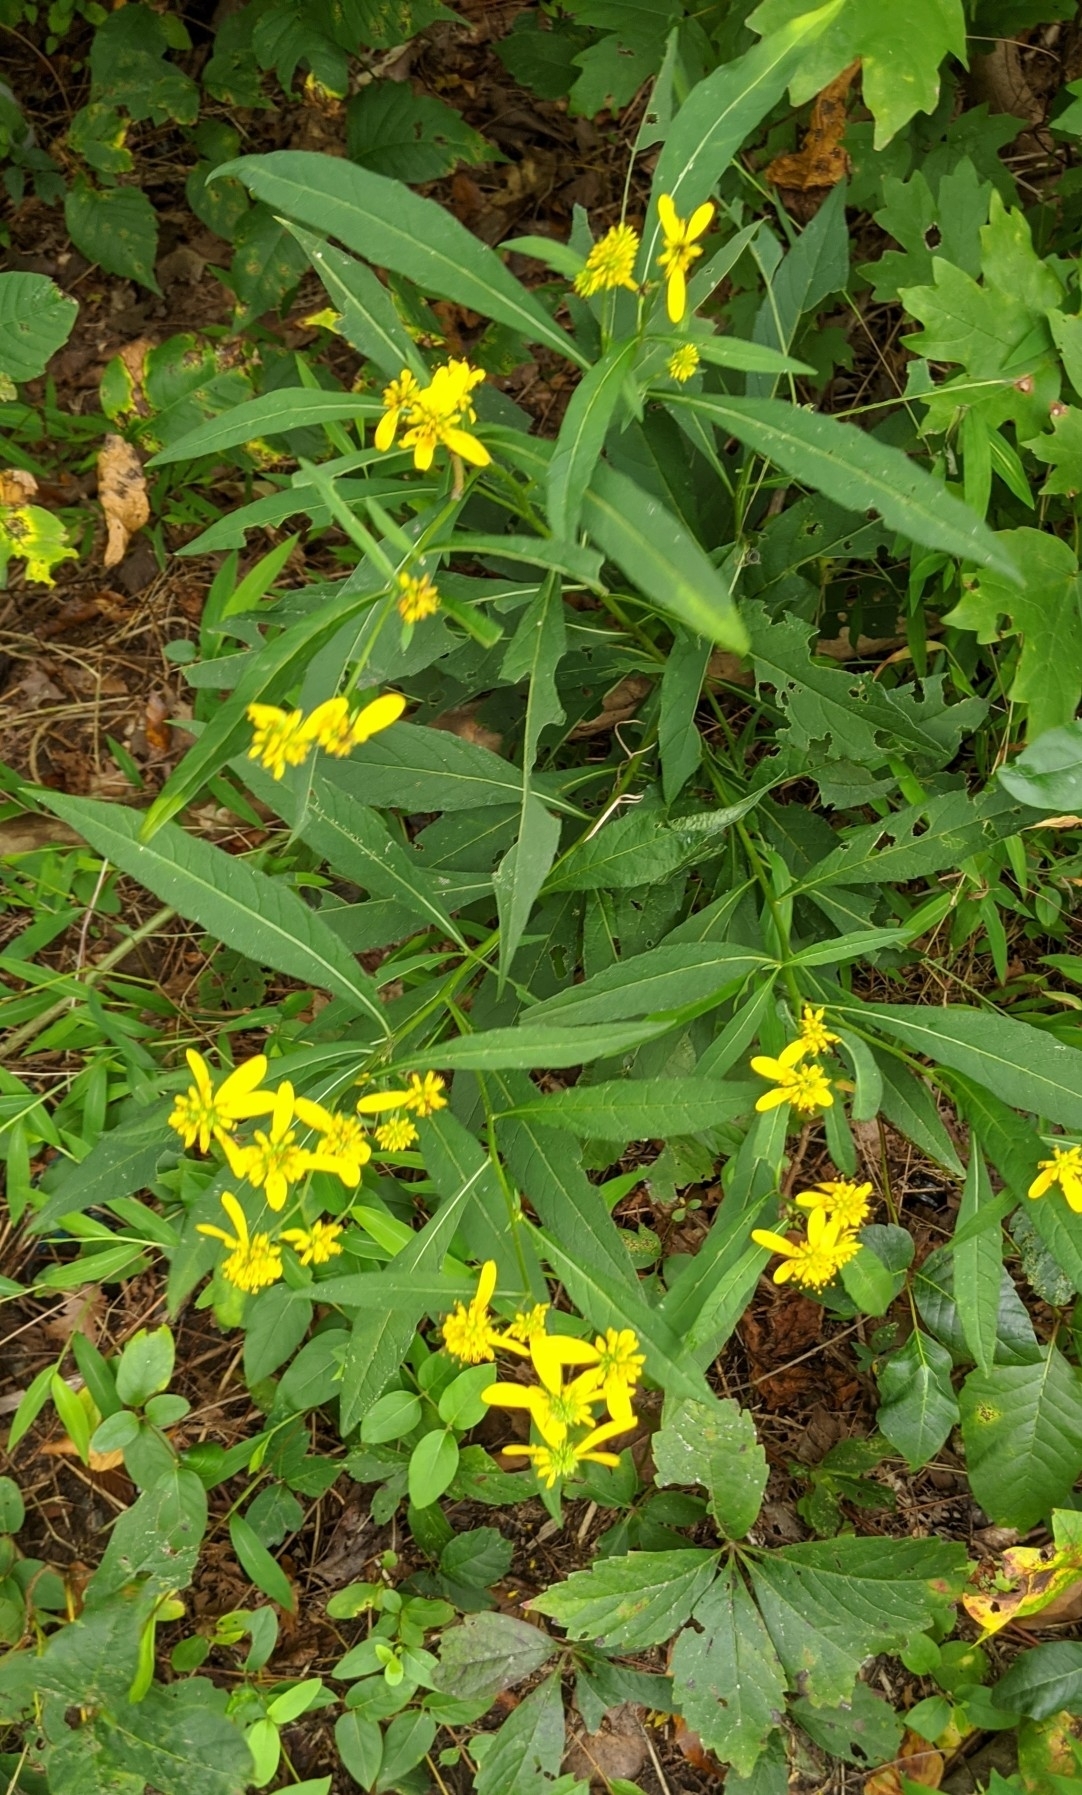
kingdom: Plantae
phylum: Tracheophyta
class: Magnoliopsida
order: Asterales
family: Asteraceae
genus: Verbesina
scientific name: Verbesina alternifolia
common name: Wingstem
